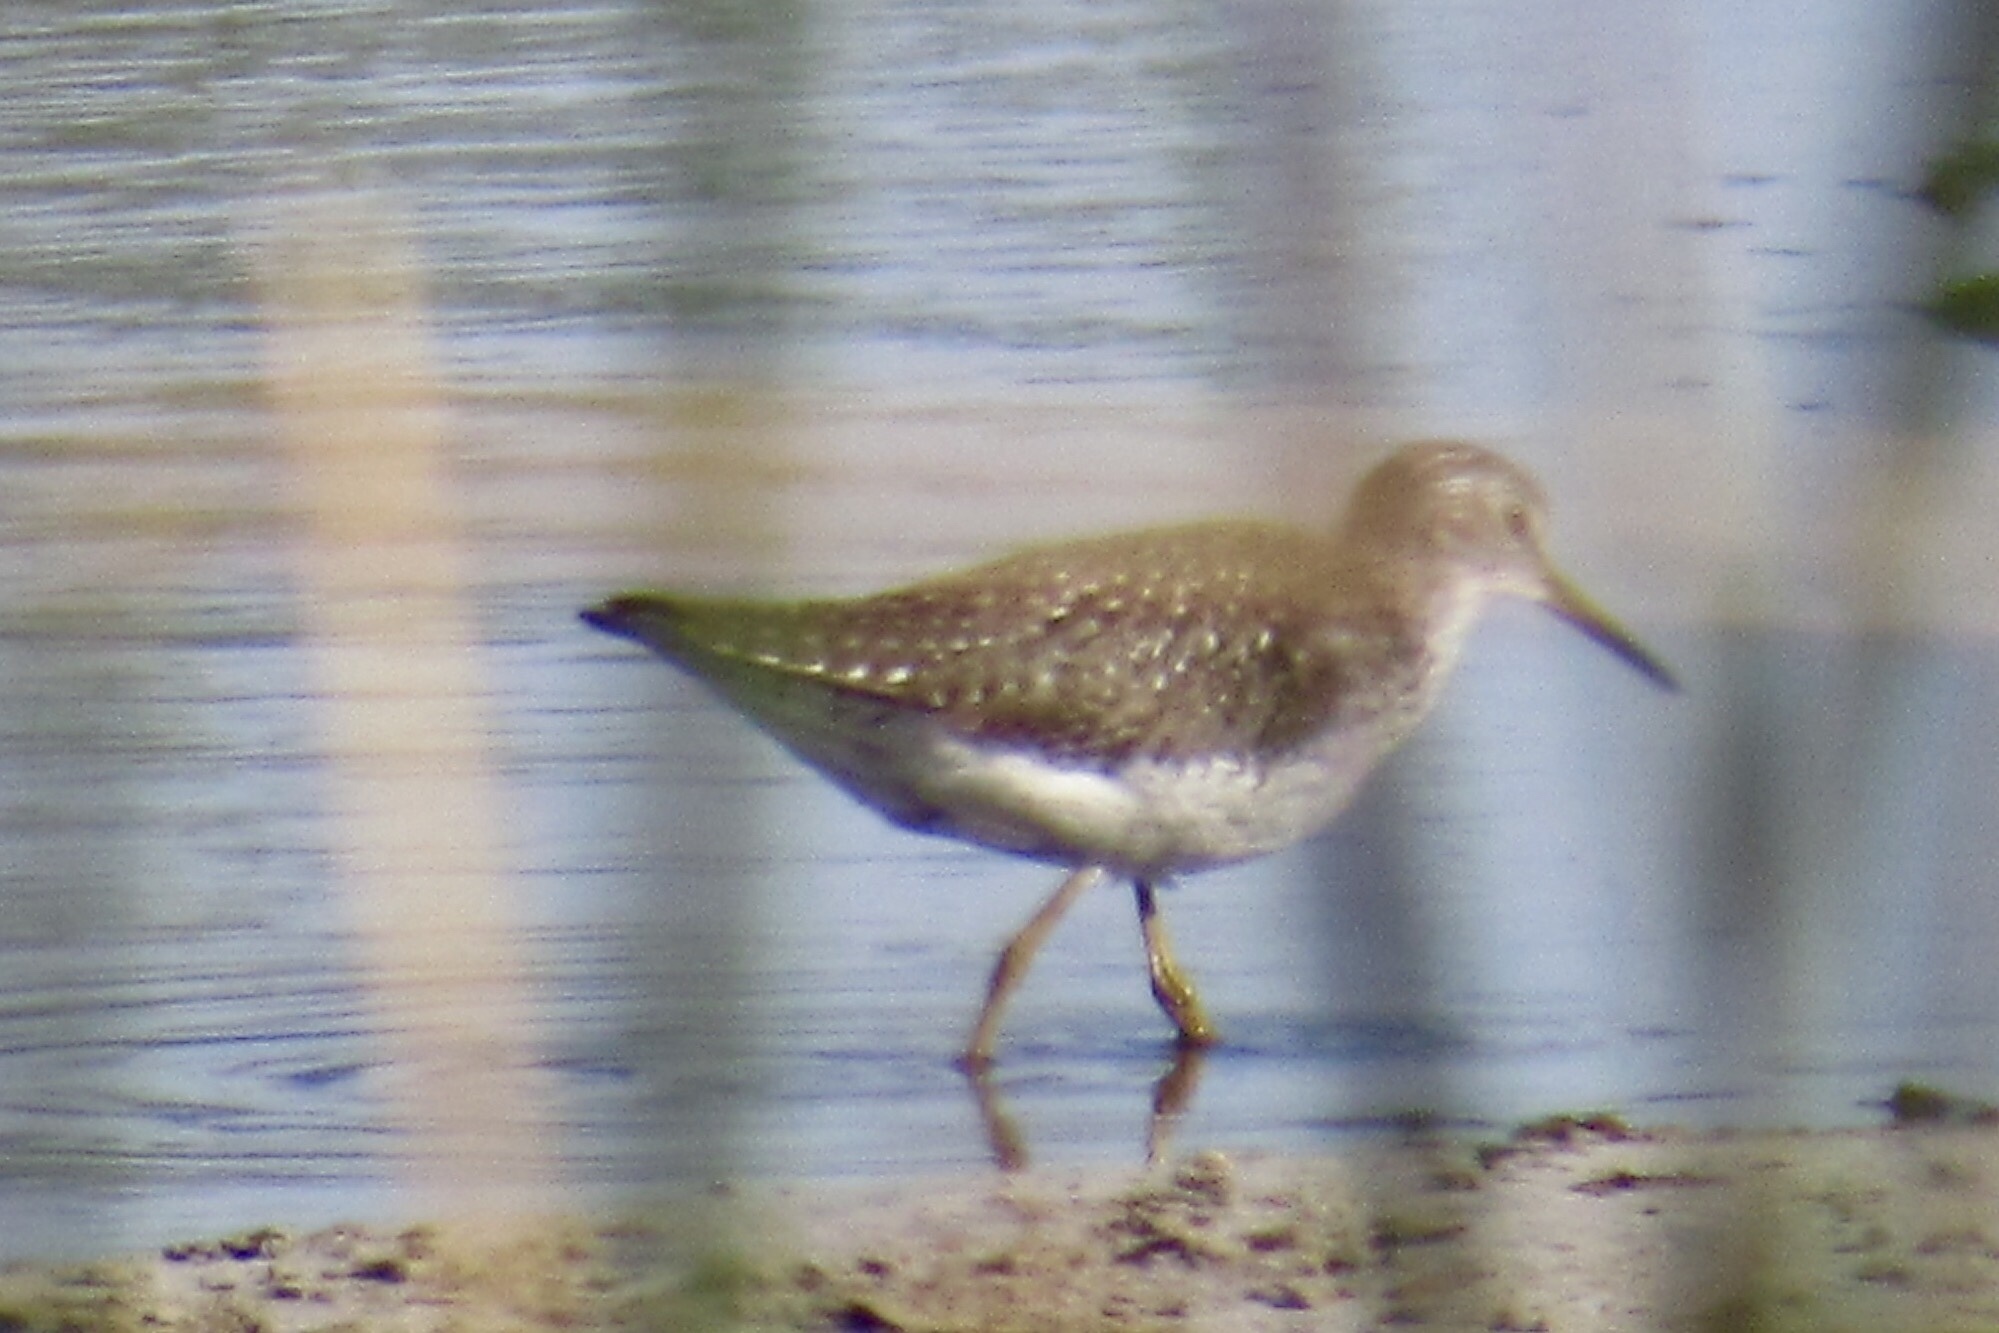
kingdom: Animalia
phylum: Chordata
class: Aves
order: Charadriiformes
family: Scolopacidae
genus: Tringa
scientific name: Tringa solitaria
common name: Solitary sandpiper
